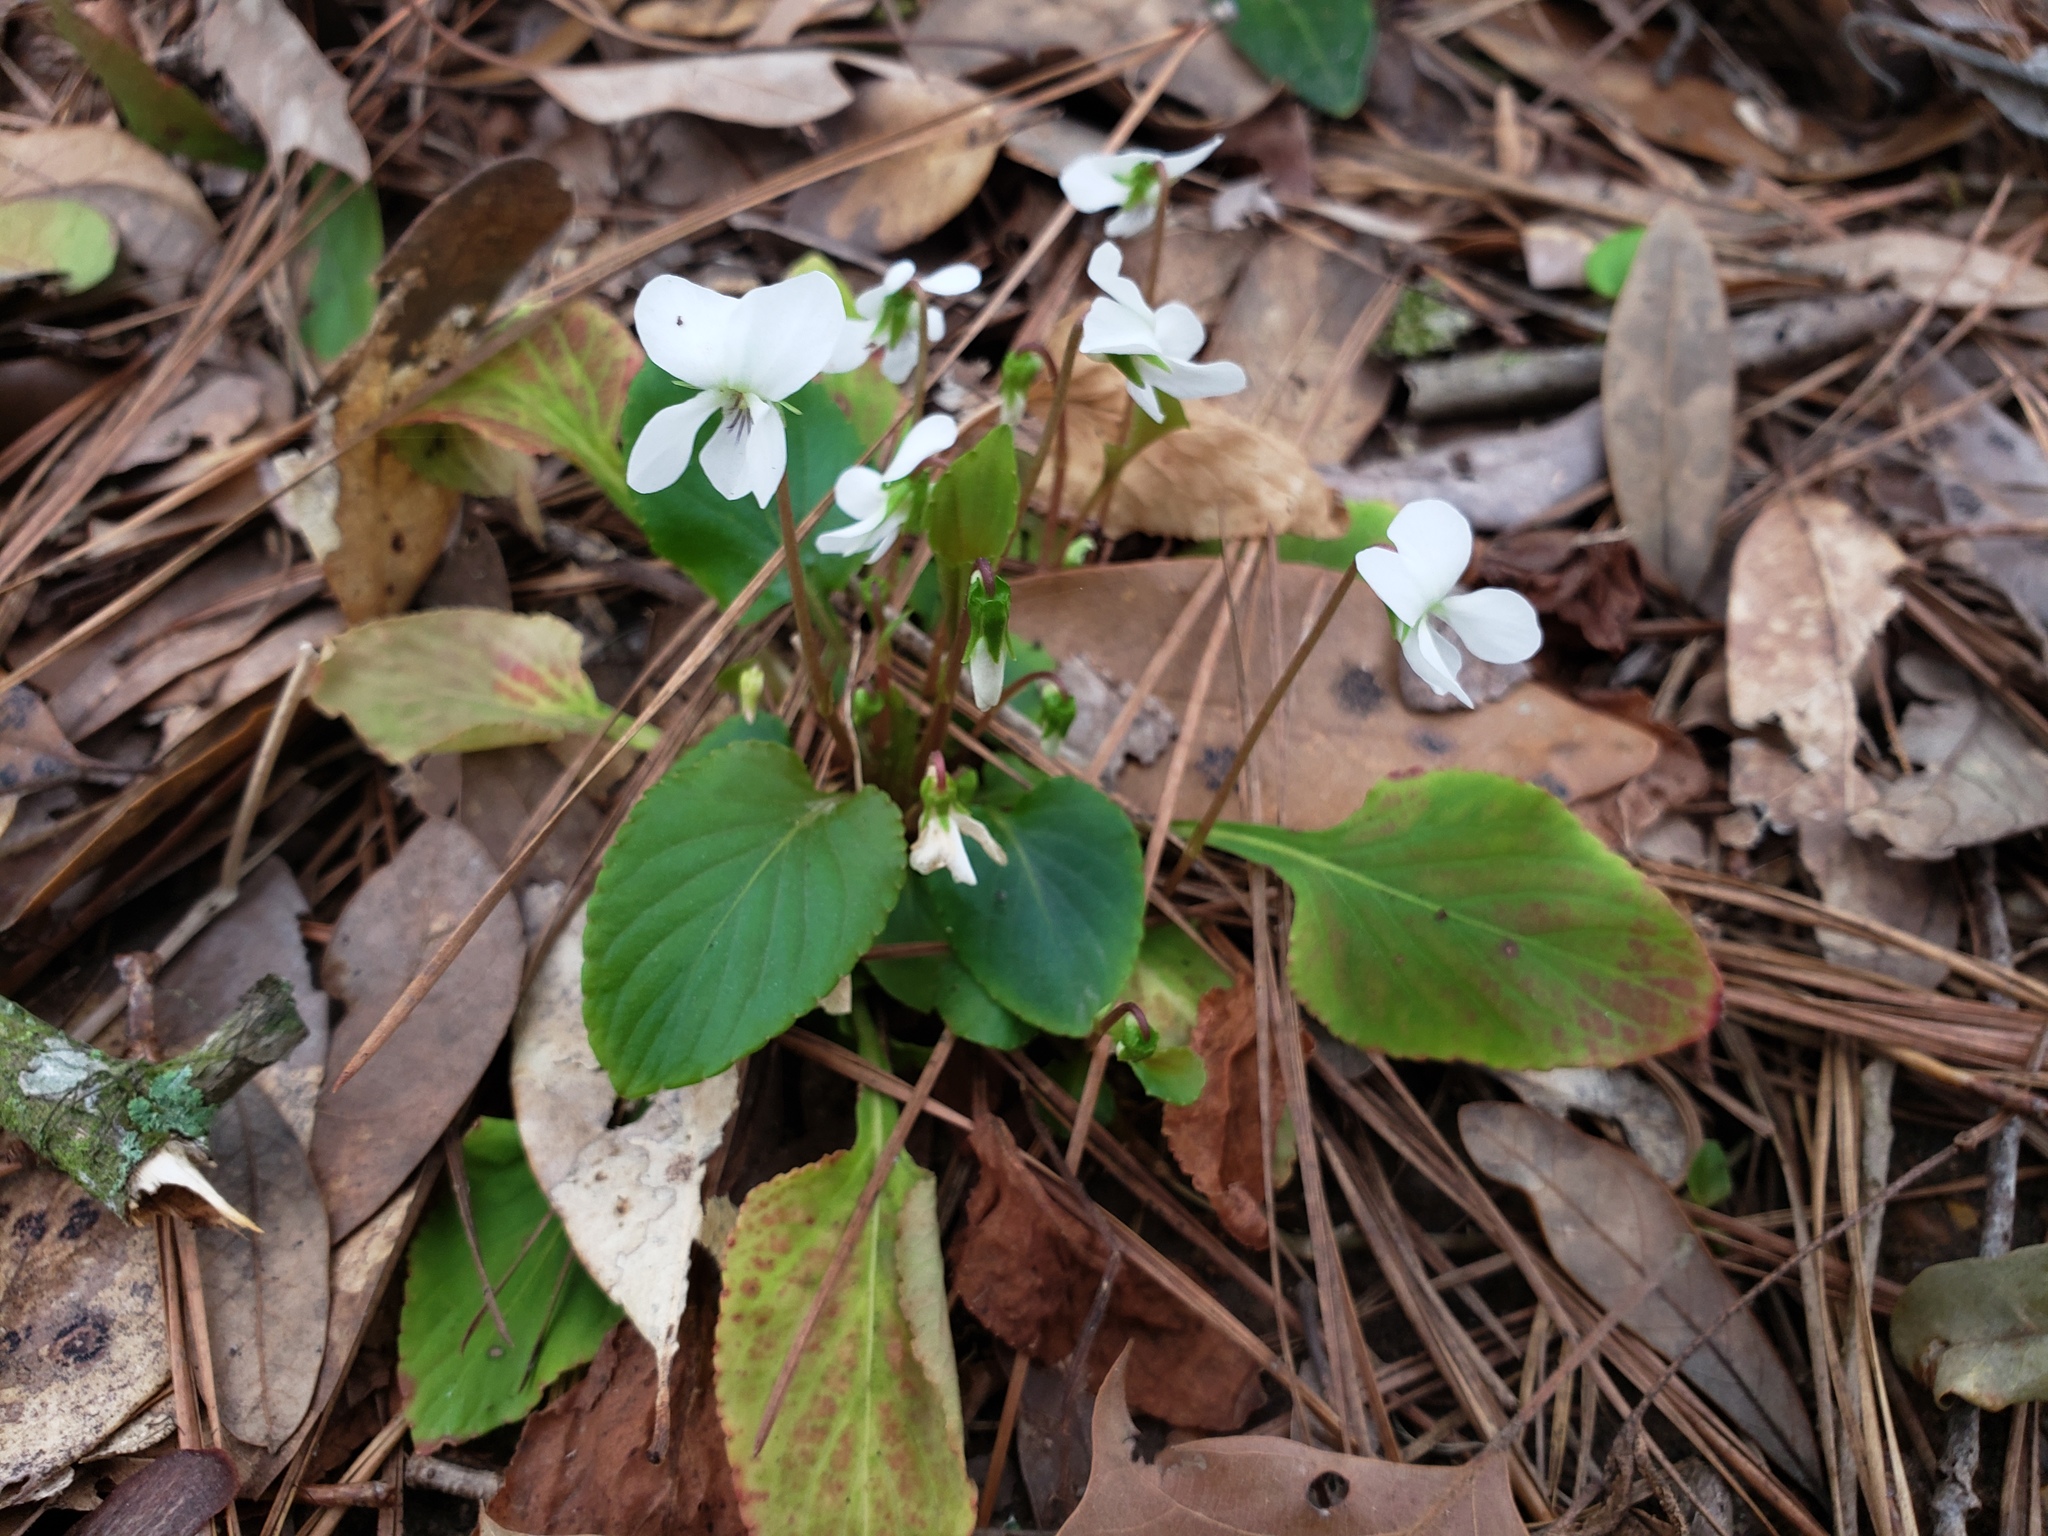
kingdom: Plantae
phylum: Tracheophyta
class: Magnoliopsida
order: Malpighiales
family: Violaceae
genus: Viola
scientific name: Viola primulifolia
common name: Primrose-leaf violet
